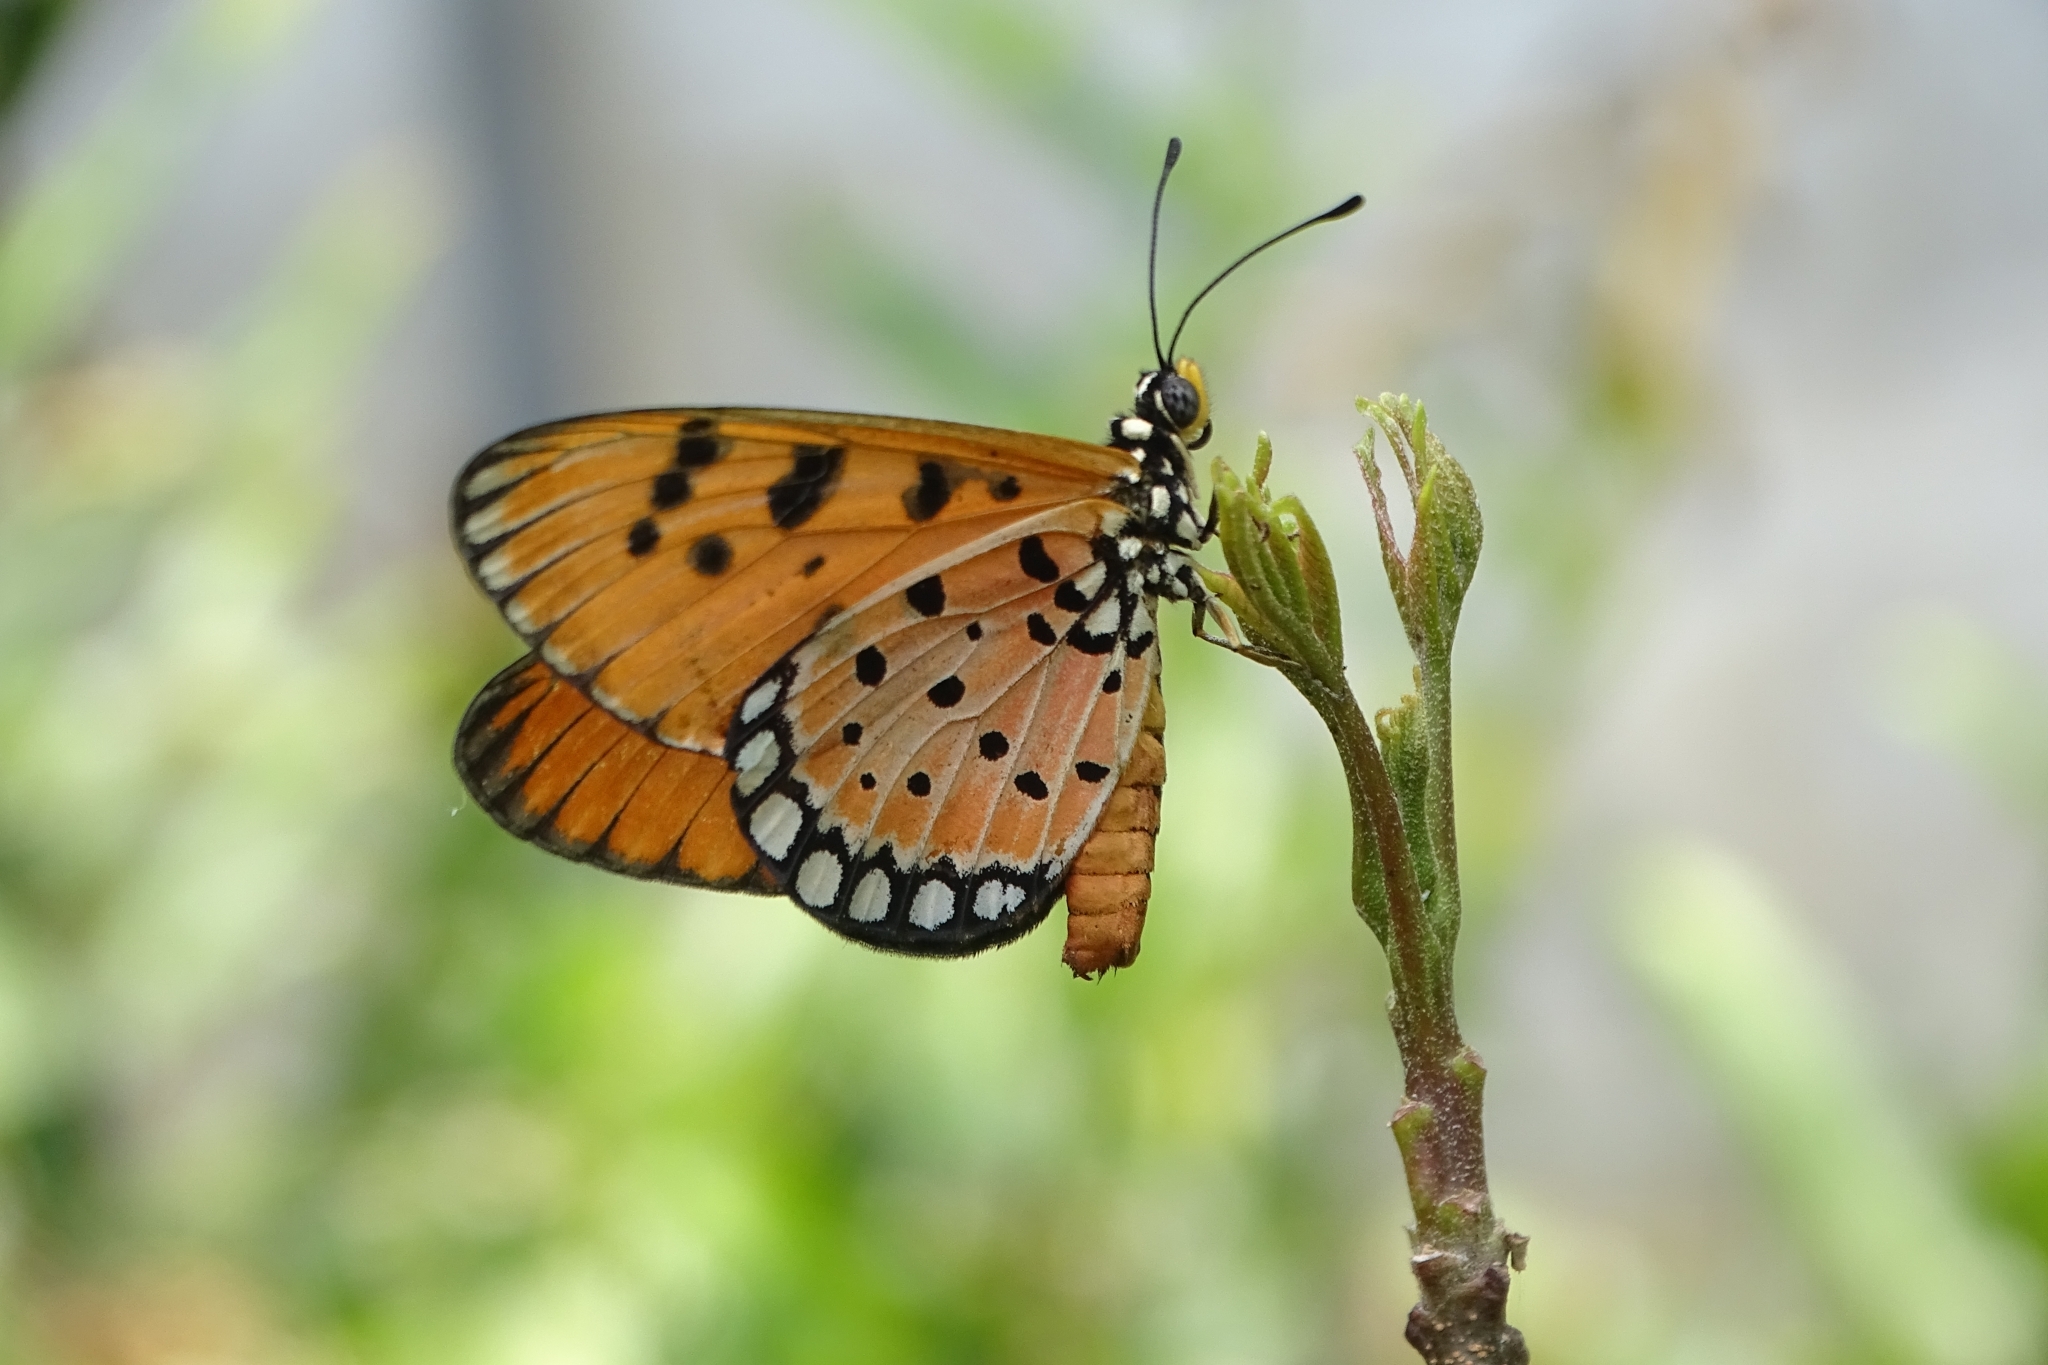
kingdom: Animalia
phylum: Arthropoda
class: Insecta
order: Lepidoptera
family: Nymphalidae
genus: Acraea
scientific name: Acraea terpsicore
